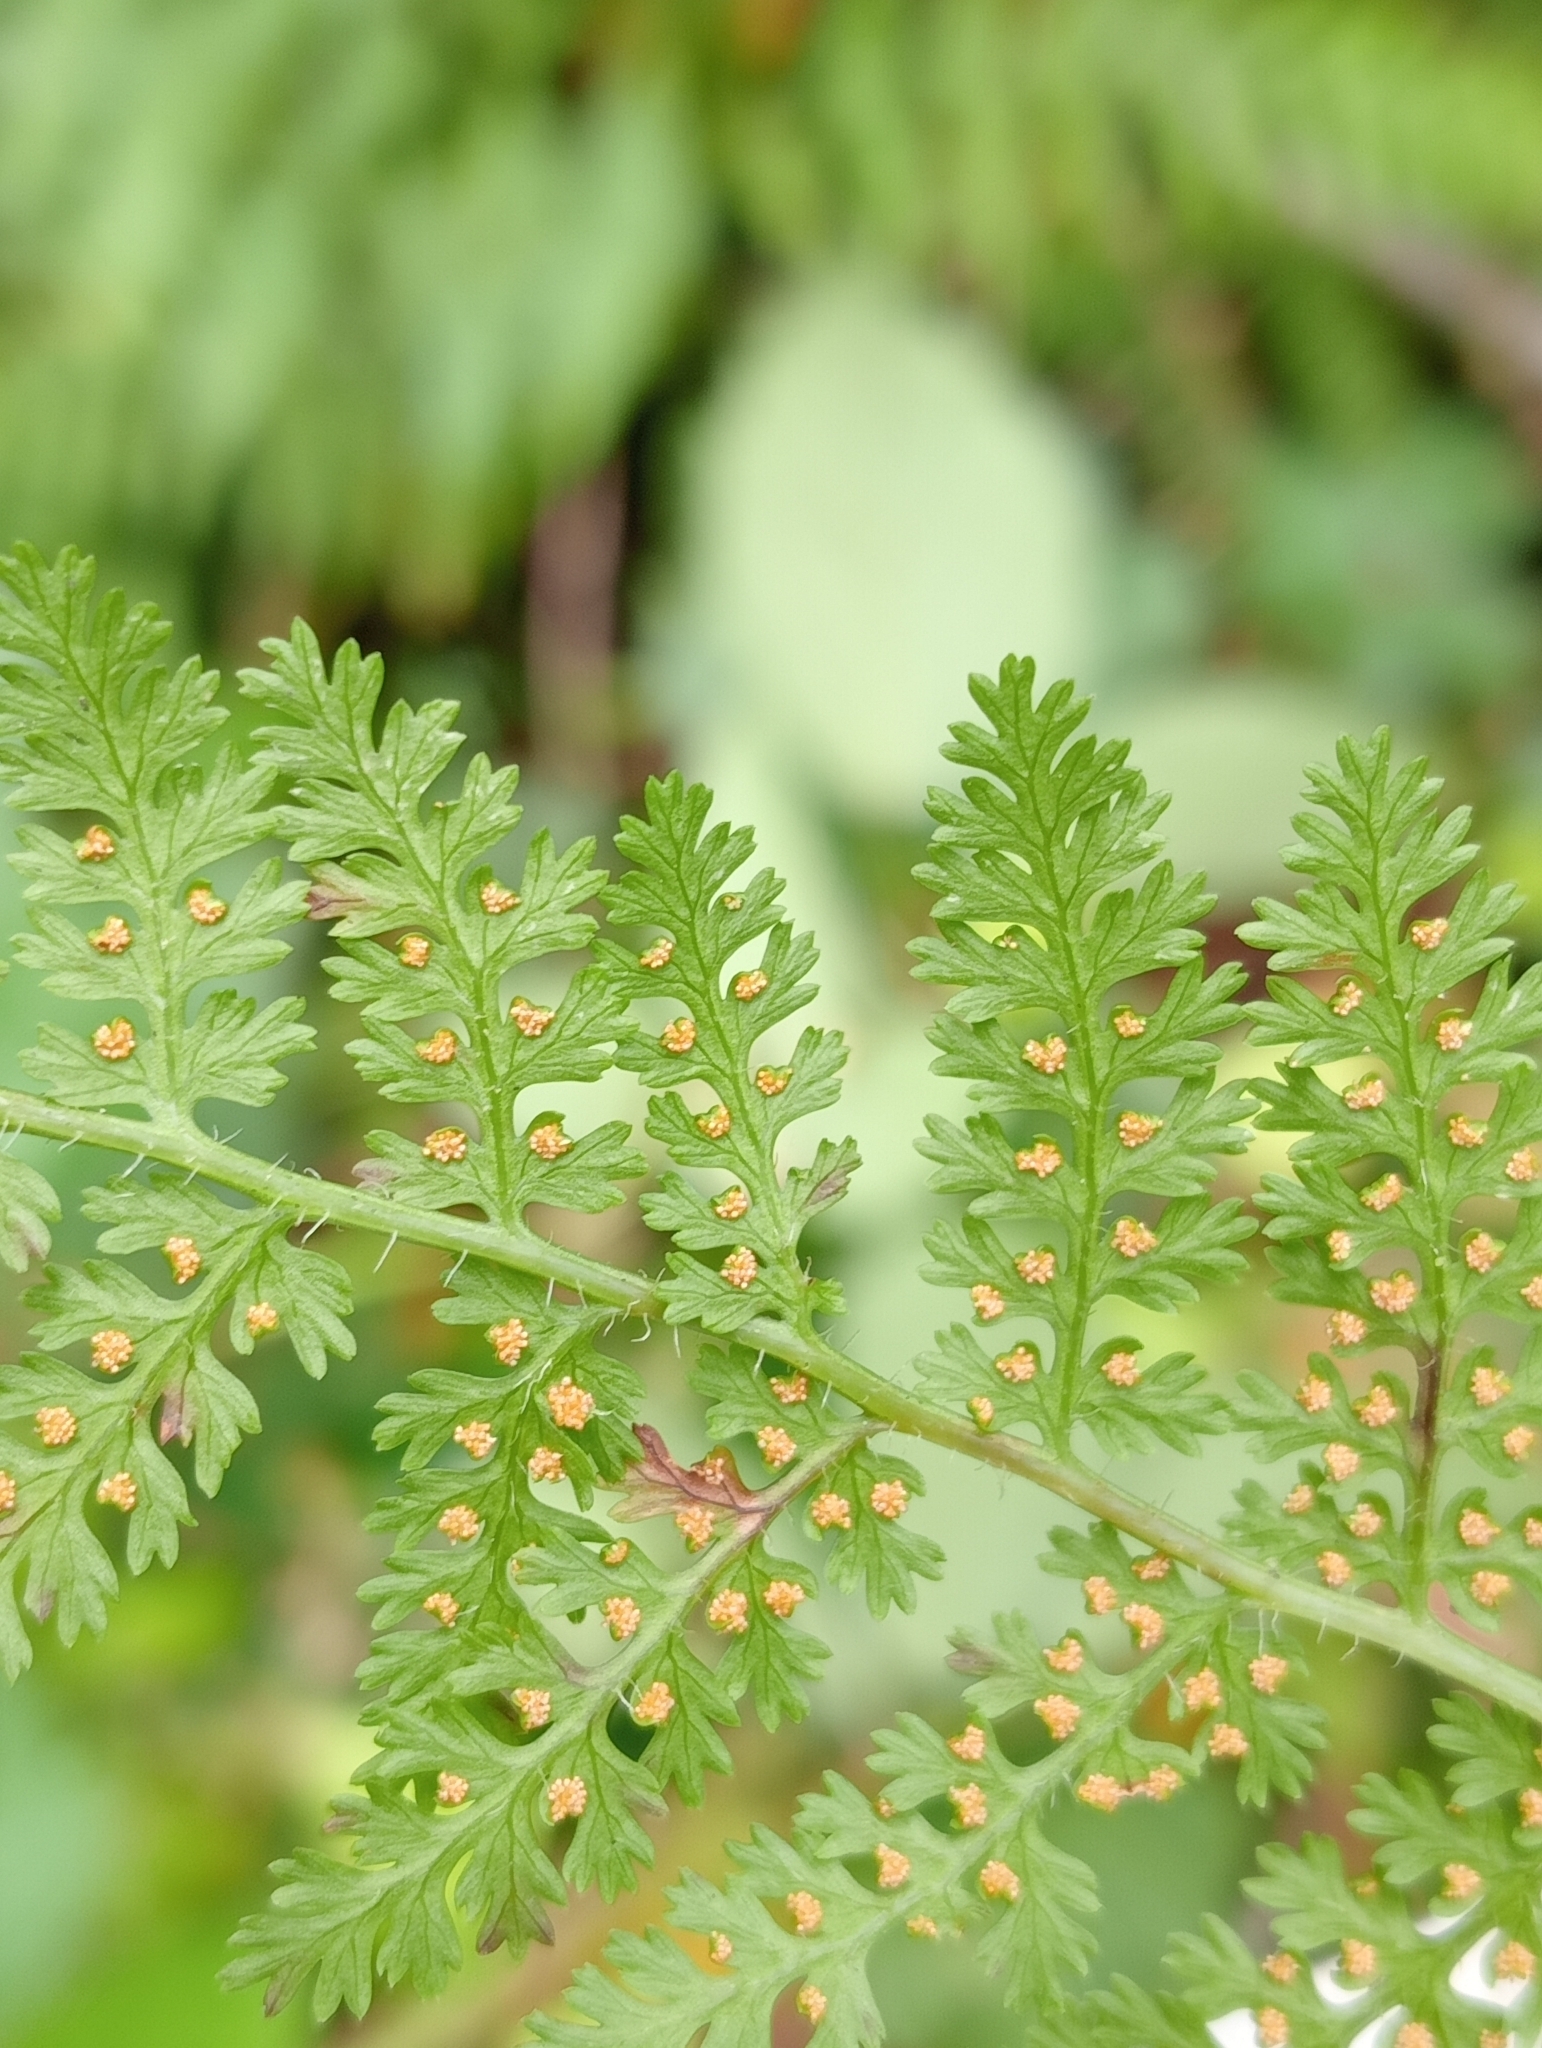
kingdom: Plantae
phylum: Tracheophyta
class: Polypodiopsida
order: Polypodiales
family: Dennstaedtiaceae
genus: Hypolepis
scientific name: Hypolepis millefolium
